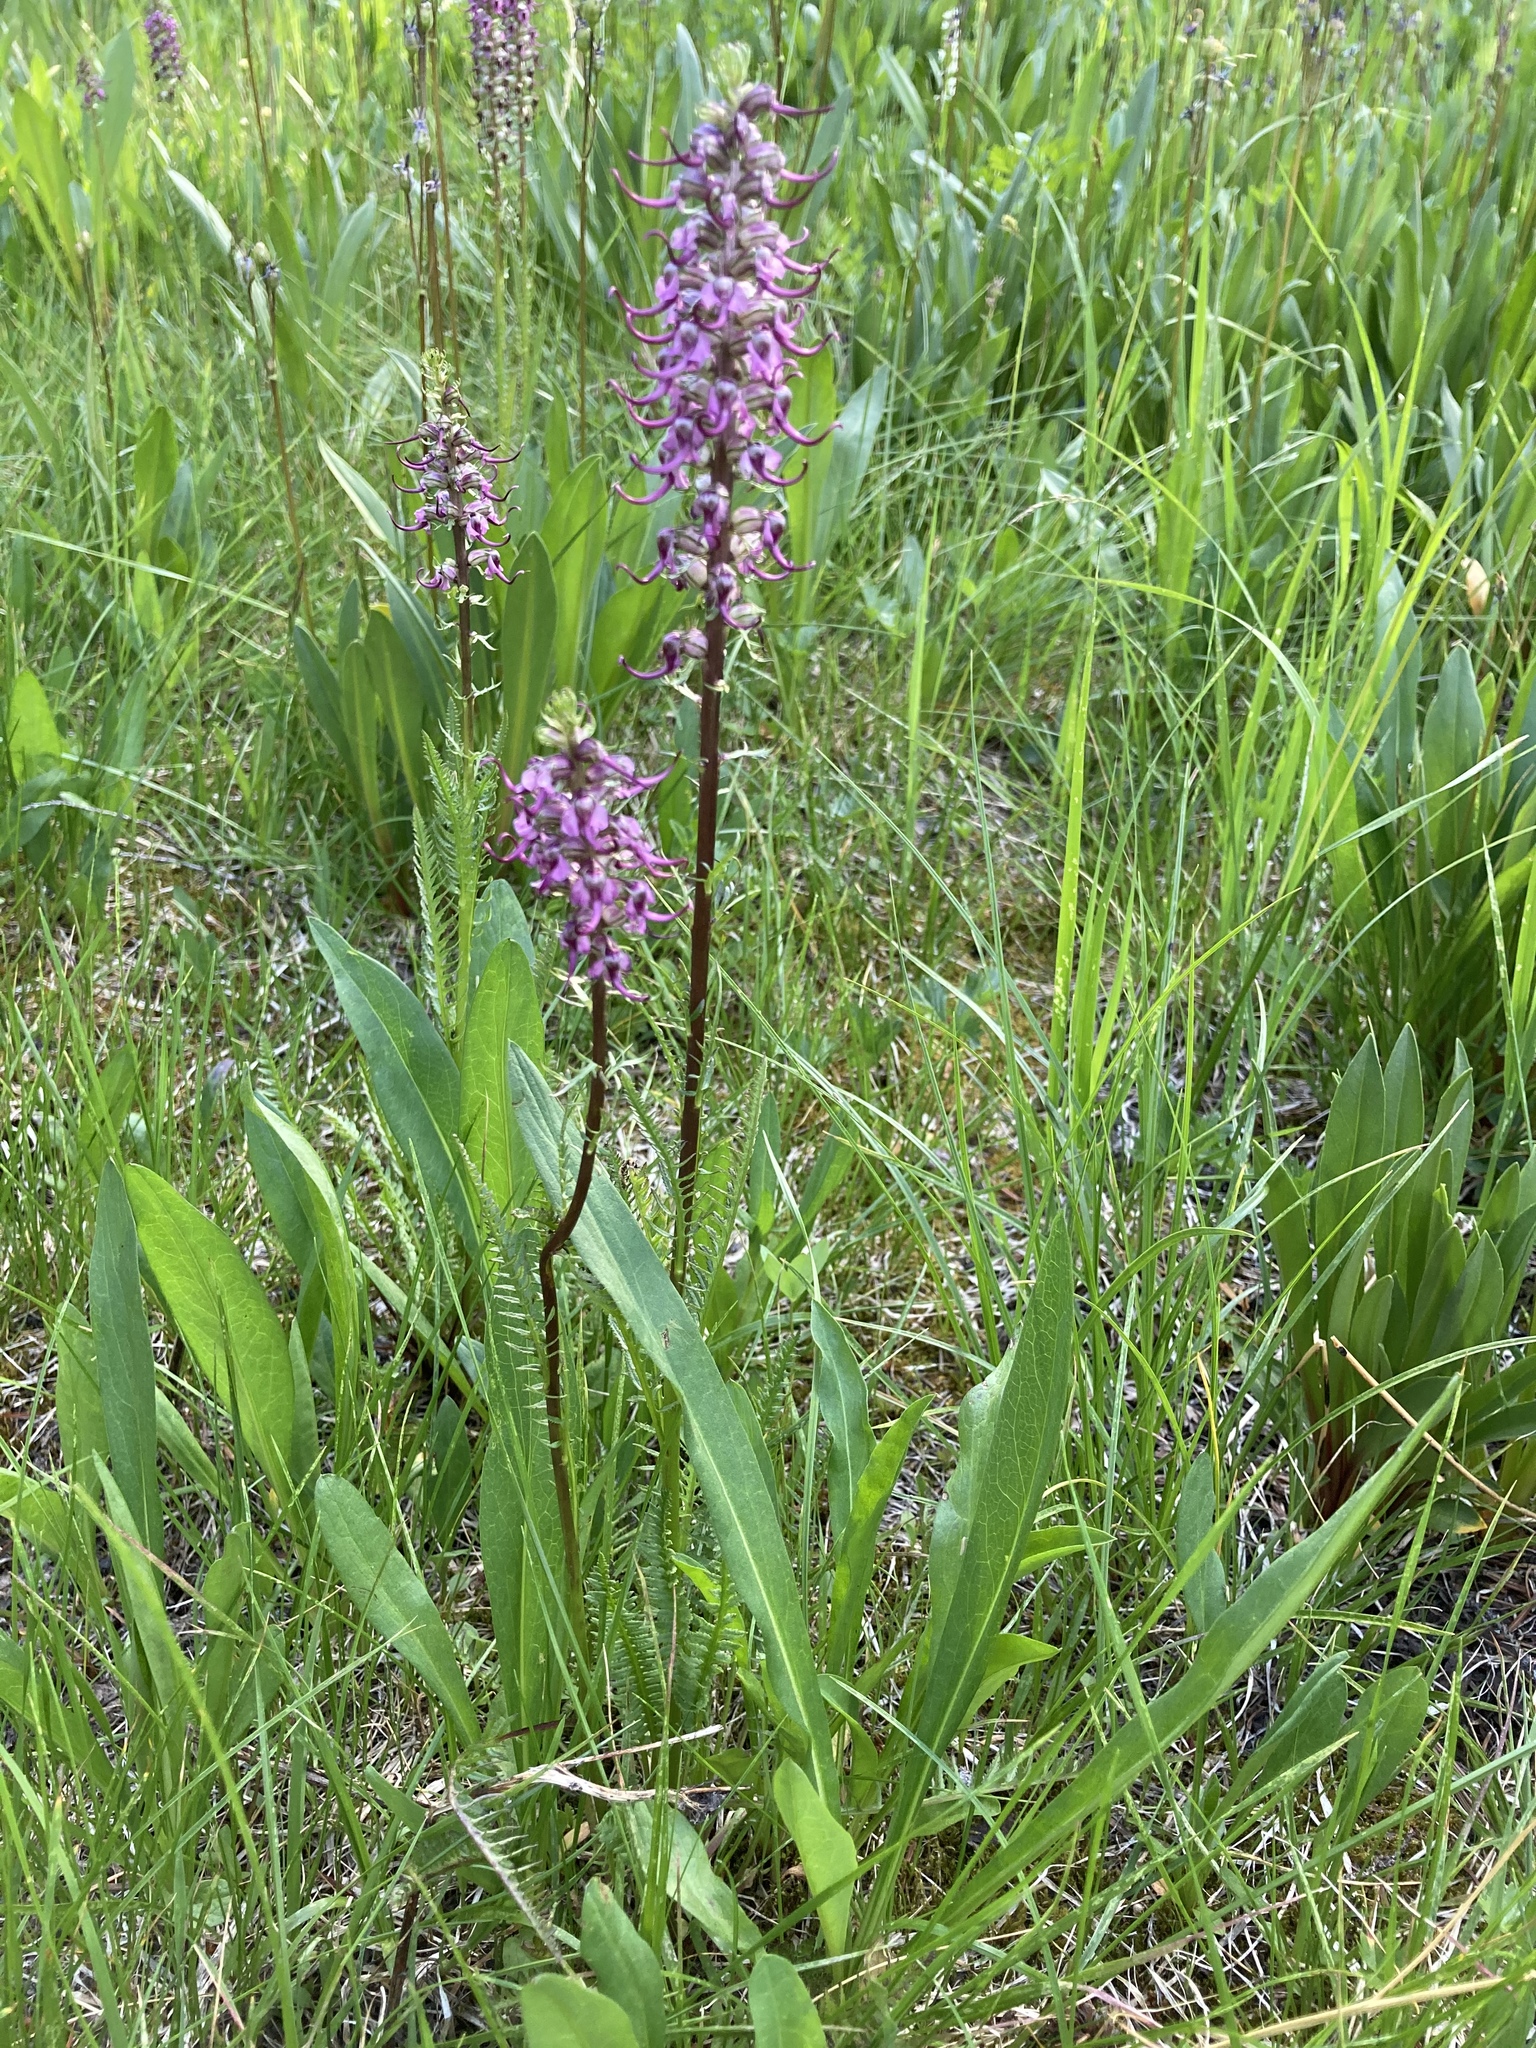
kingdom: Plantae
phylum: Tracheophyta
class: Magnoliopsida
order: Lamiales
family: Orobanchaceae
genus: Pedicularis
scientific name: Pedicularis groenlandica
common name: Elephant's-head
